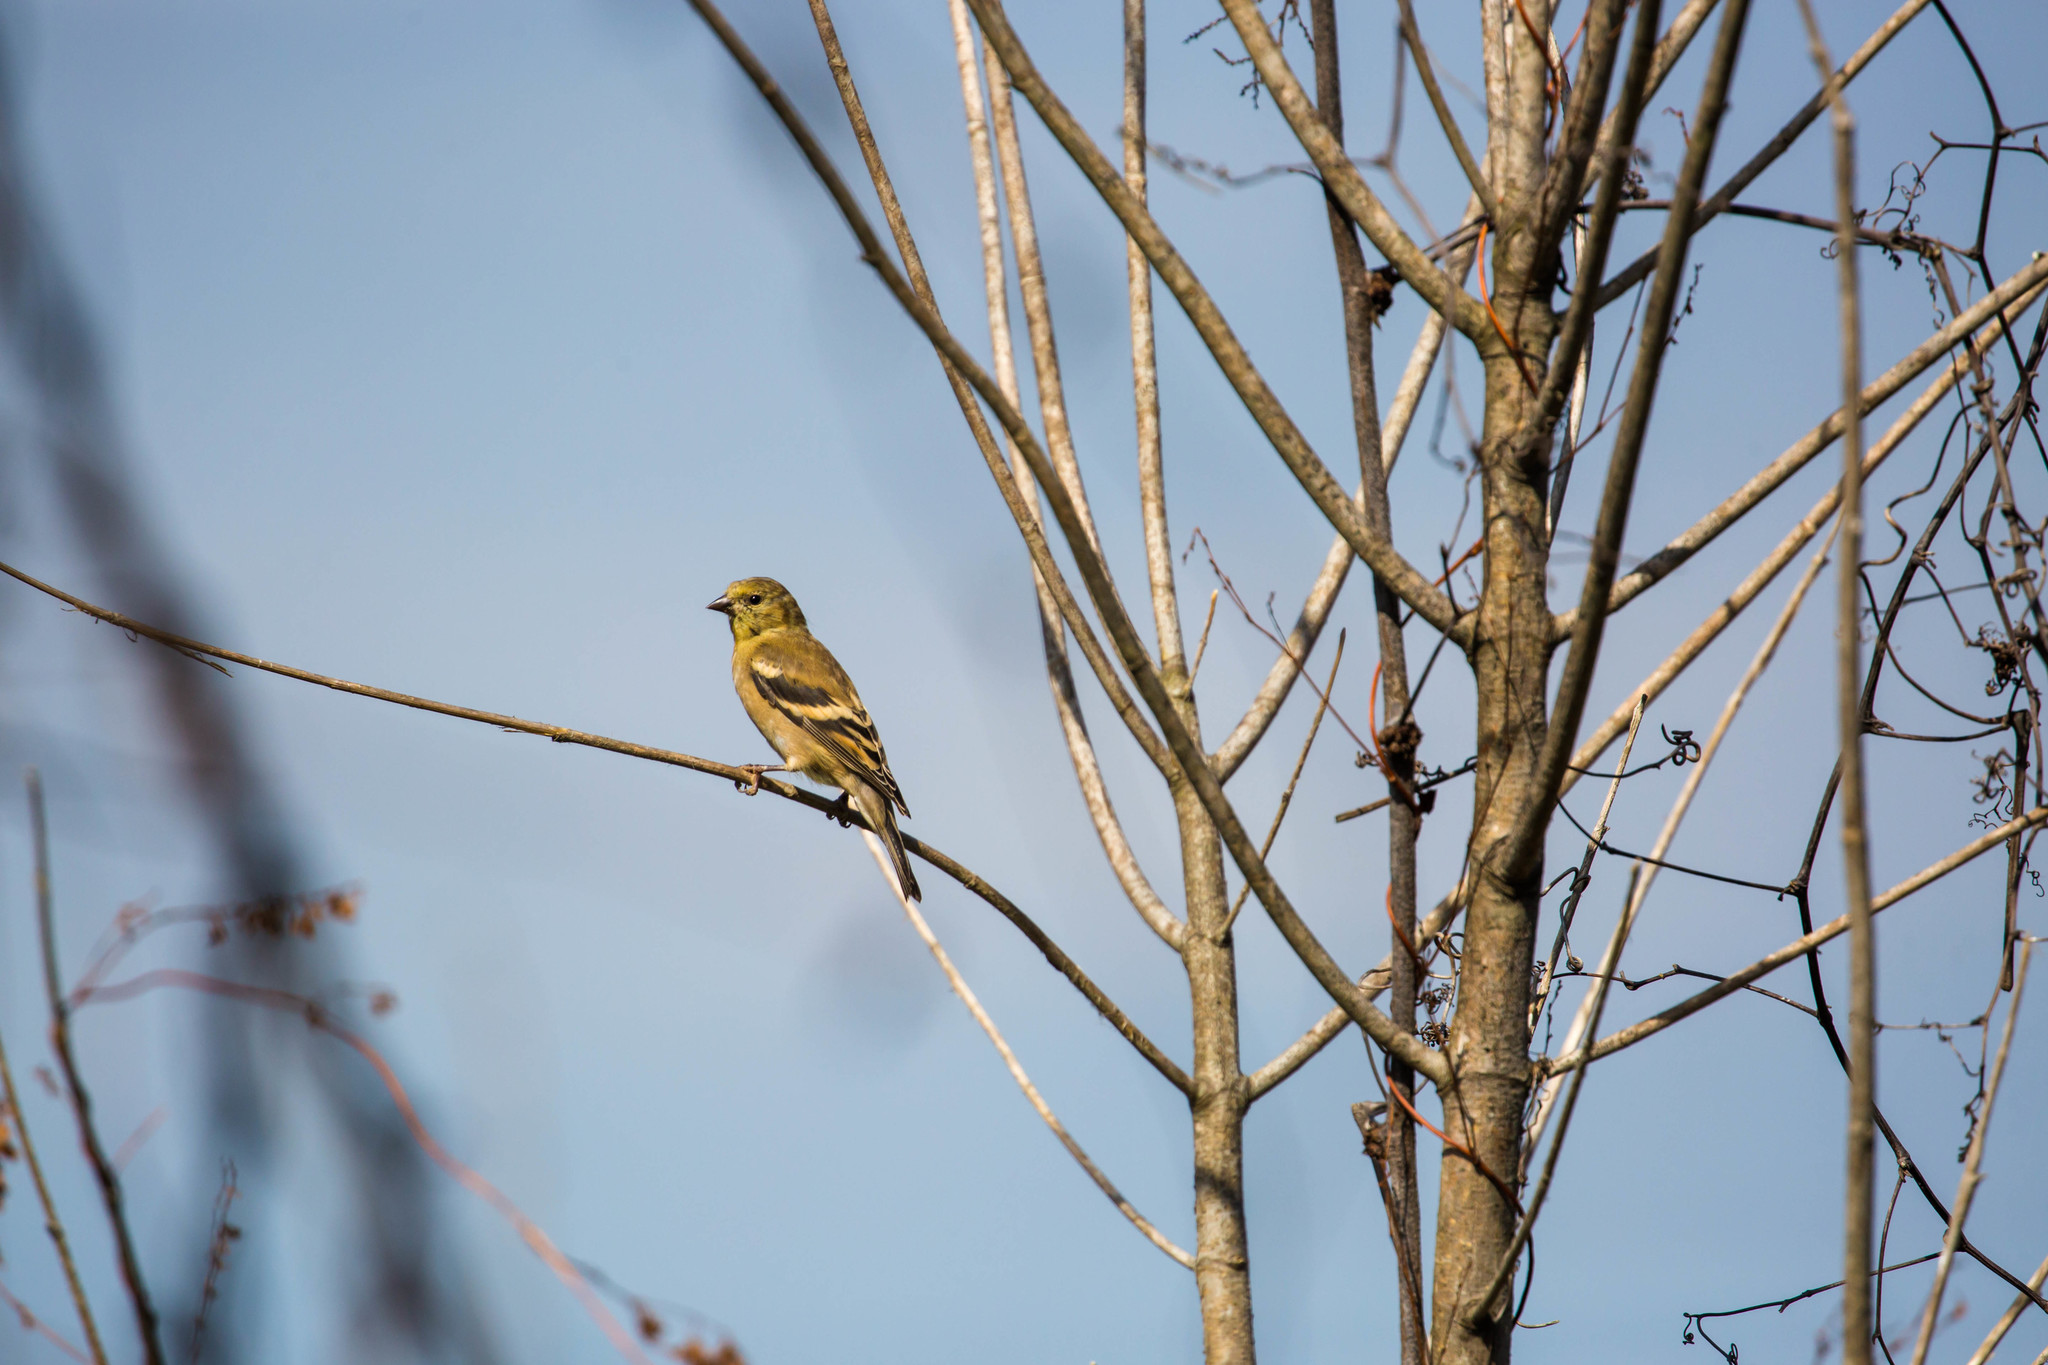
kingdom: Animalia
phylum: Chordata
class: Aves
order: Passeriformes
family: Fringillidae
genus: Spinus
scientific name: Spinus tristis
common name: American goldfinch
